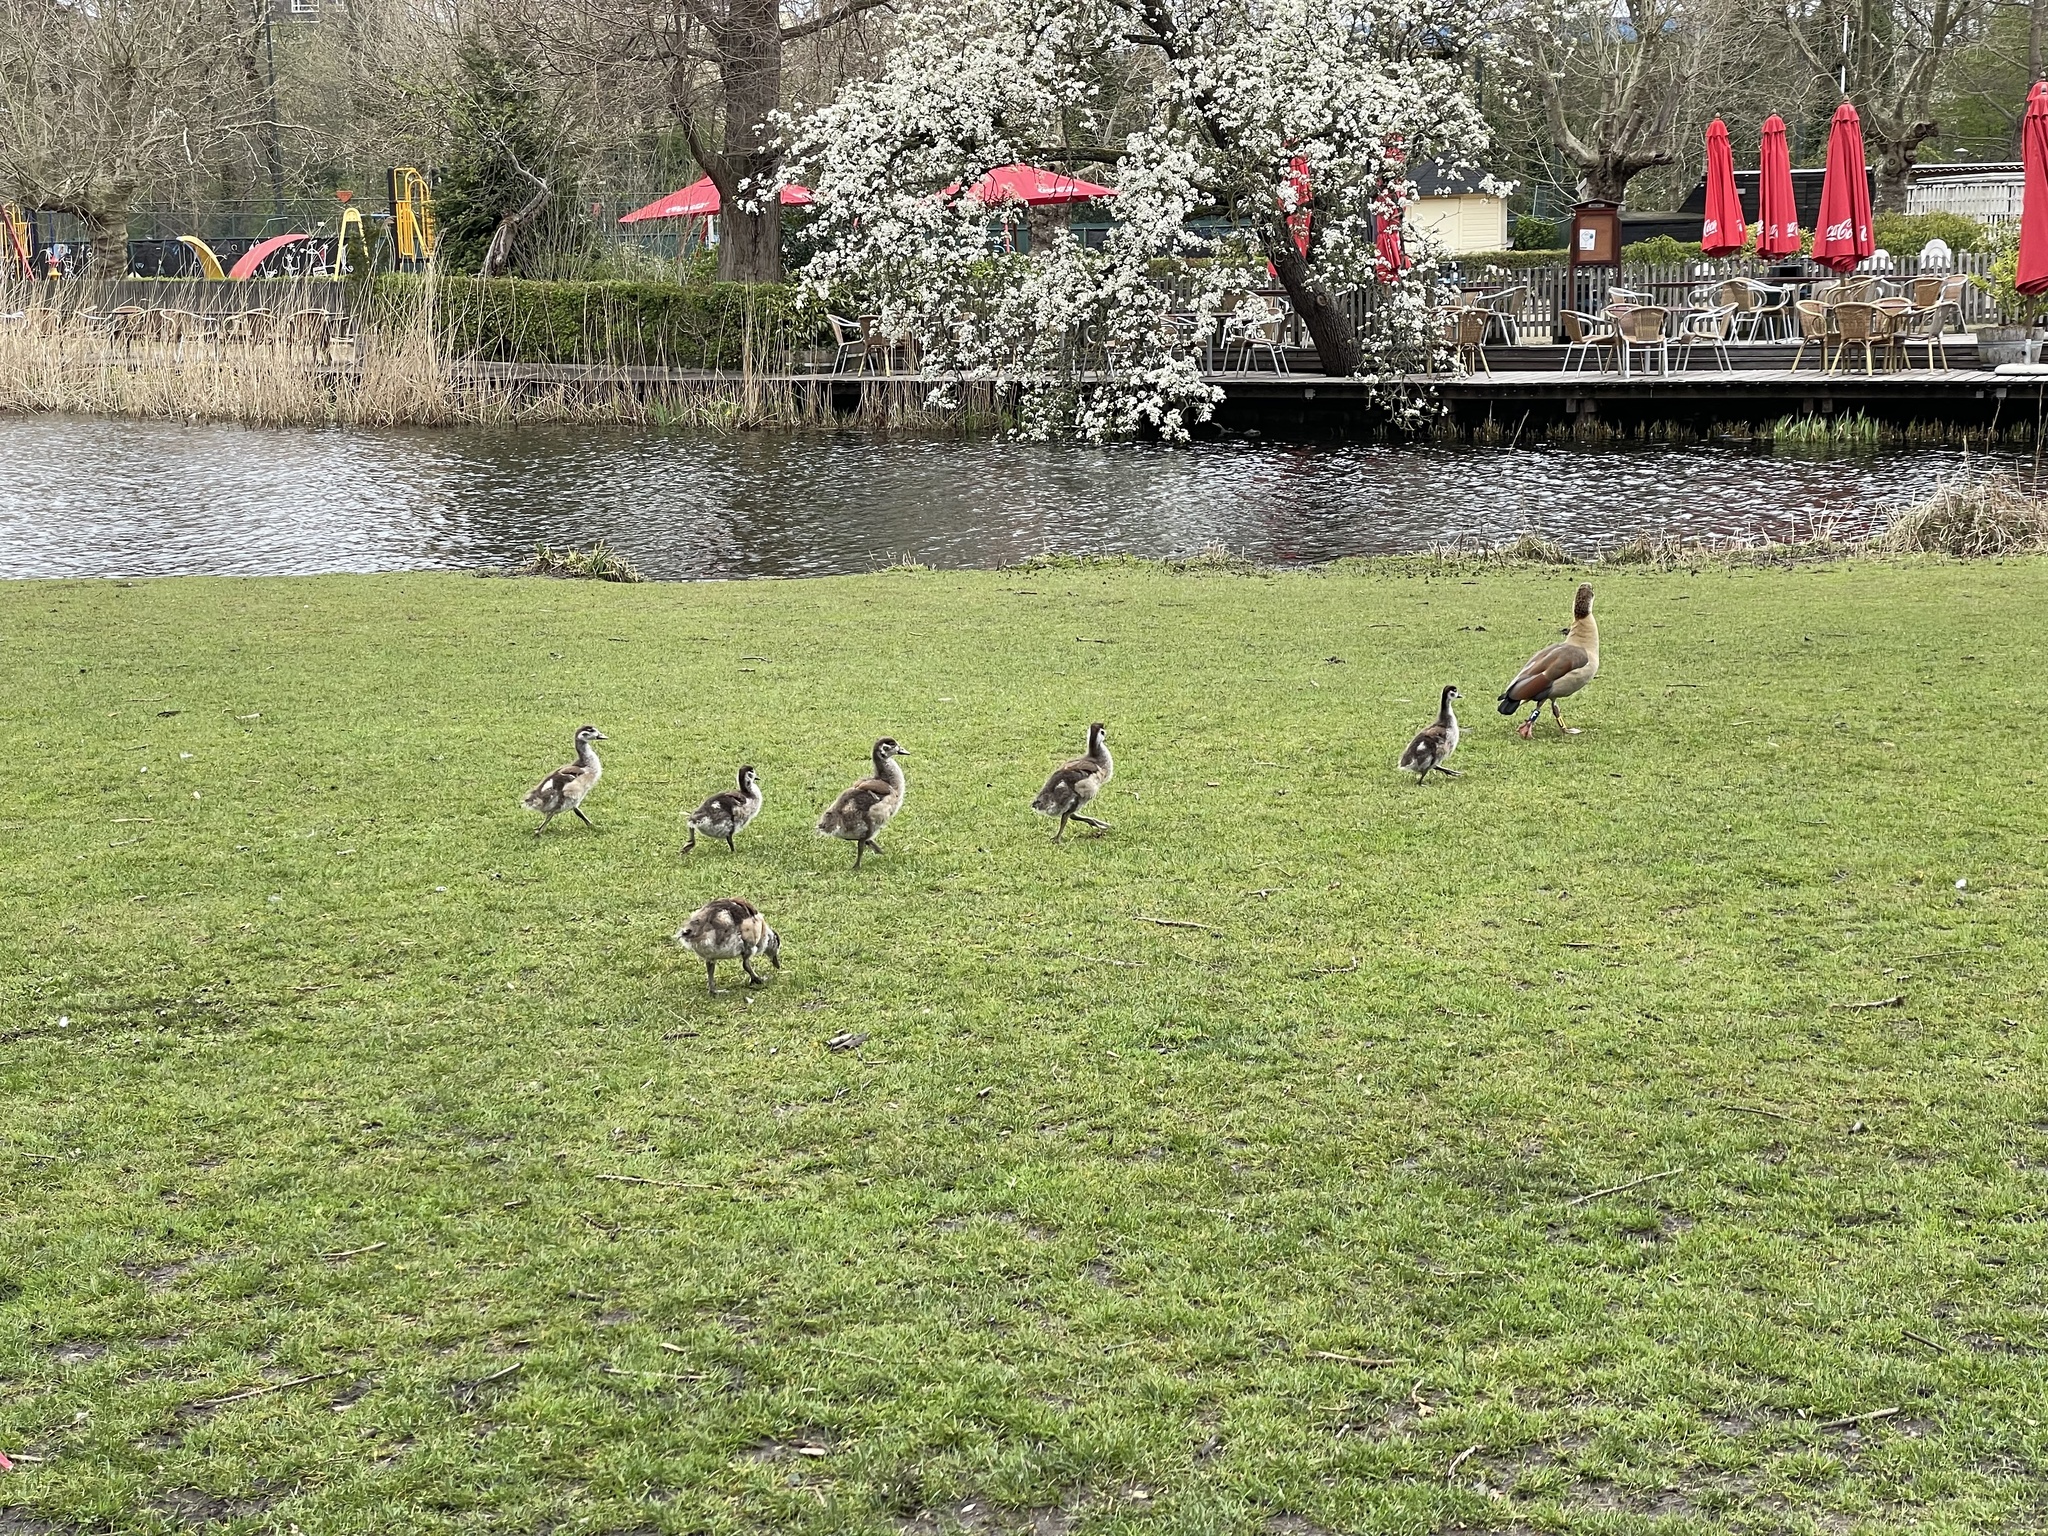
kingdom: Animalia
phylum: Chordata
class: Aves
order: Anseriformes
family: Anatidae
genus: Alopochen
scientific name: Alopochen aegyptiaca
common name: Egyptian goose
